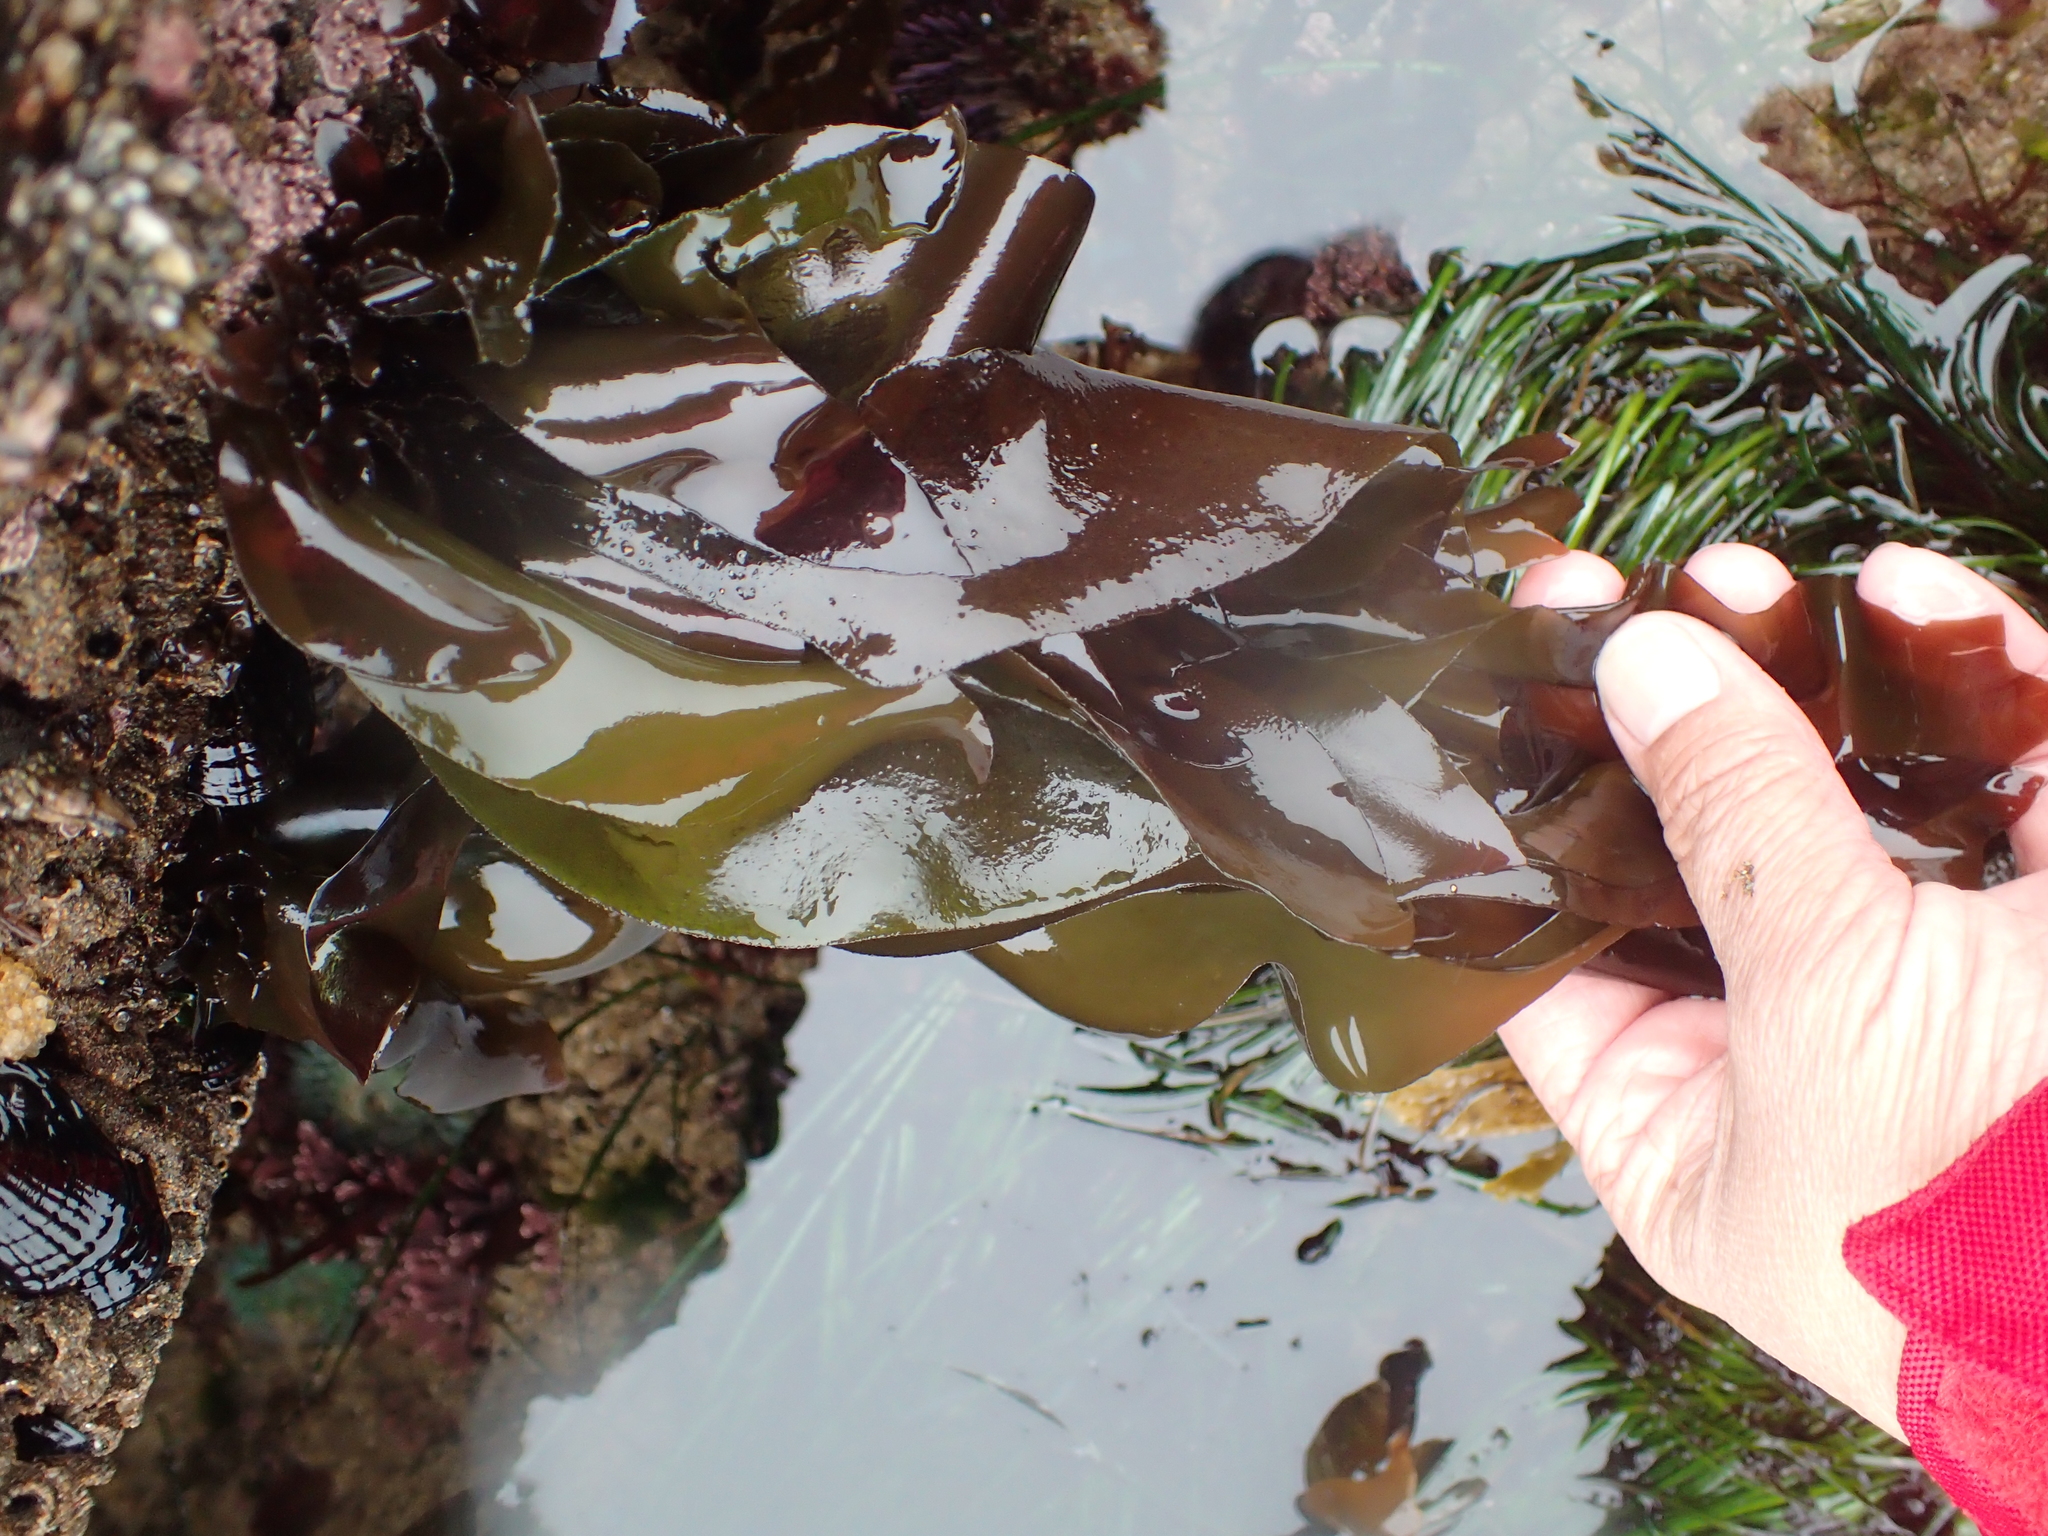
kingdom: Plantae
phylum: Rhodophyta
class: Florideophyceae
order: Gigartinales
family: Gigartinaceae
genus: Mazzaella
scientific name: Mazzaella flaccida
